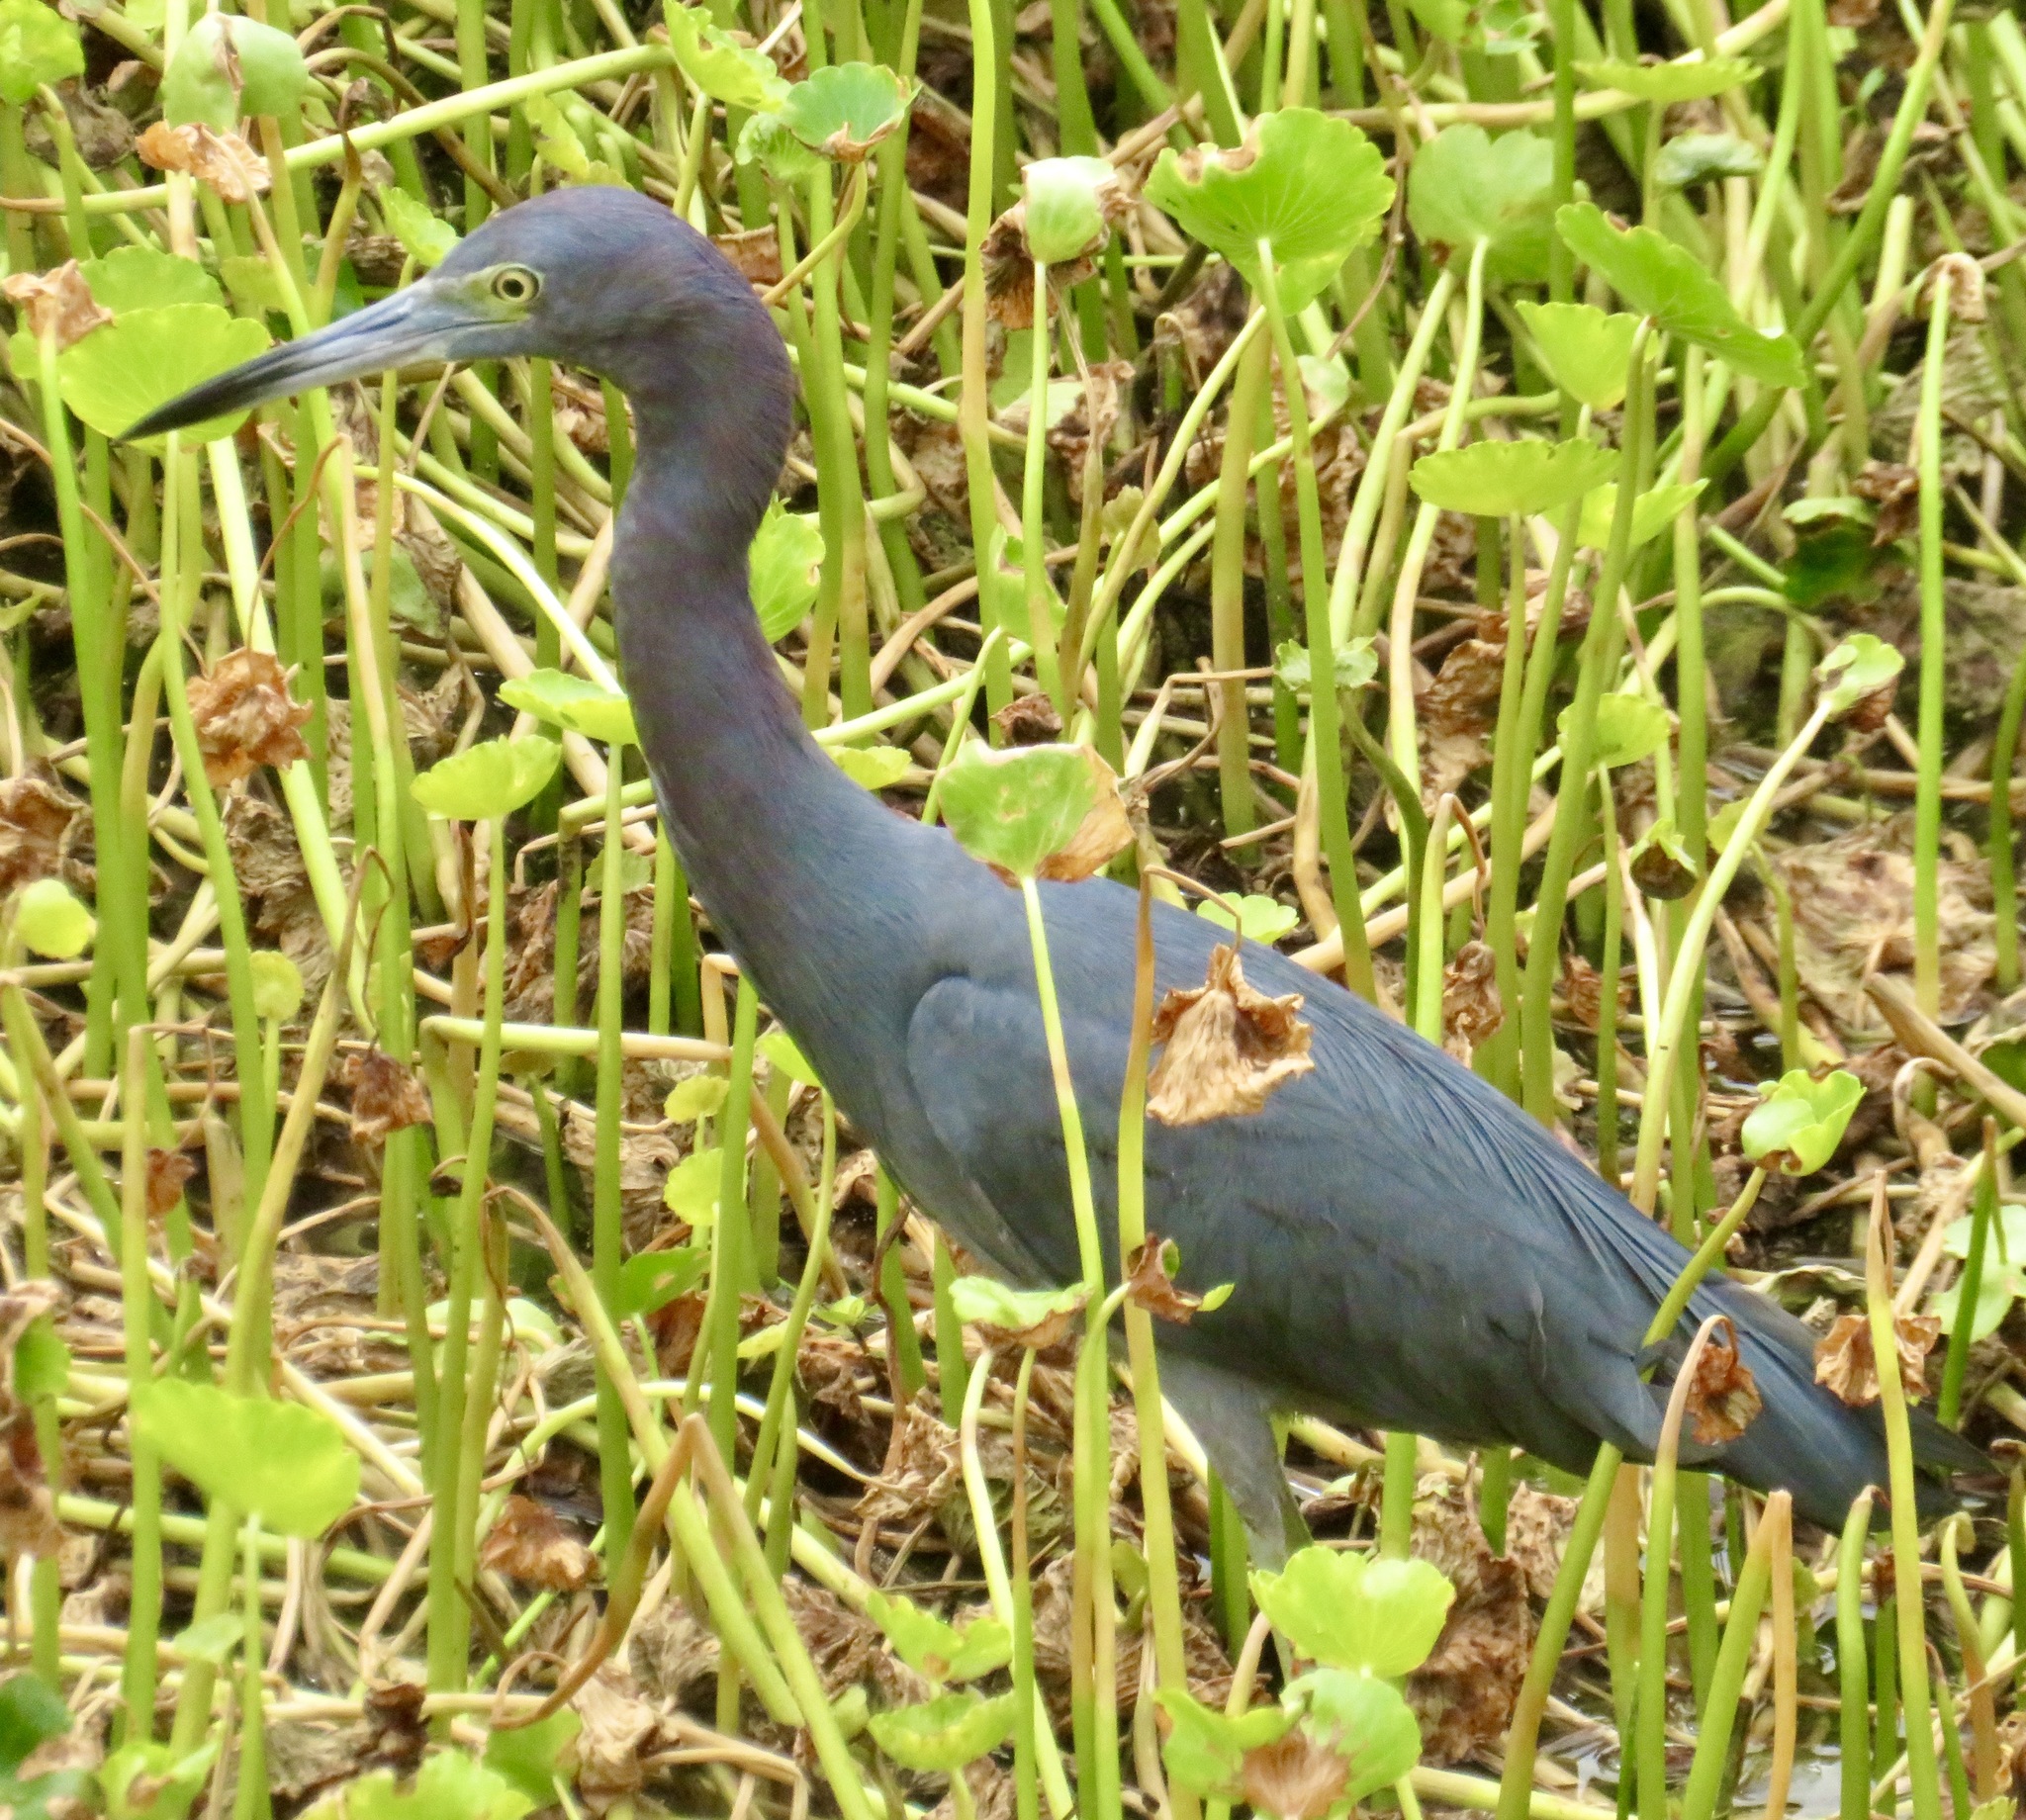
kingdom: Animalia
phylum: Chordata
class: Aves
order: Pelecaniformes
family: Ardeidae
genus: Egretta
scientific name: Egretta caerulea
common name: Little blue heron
